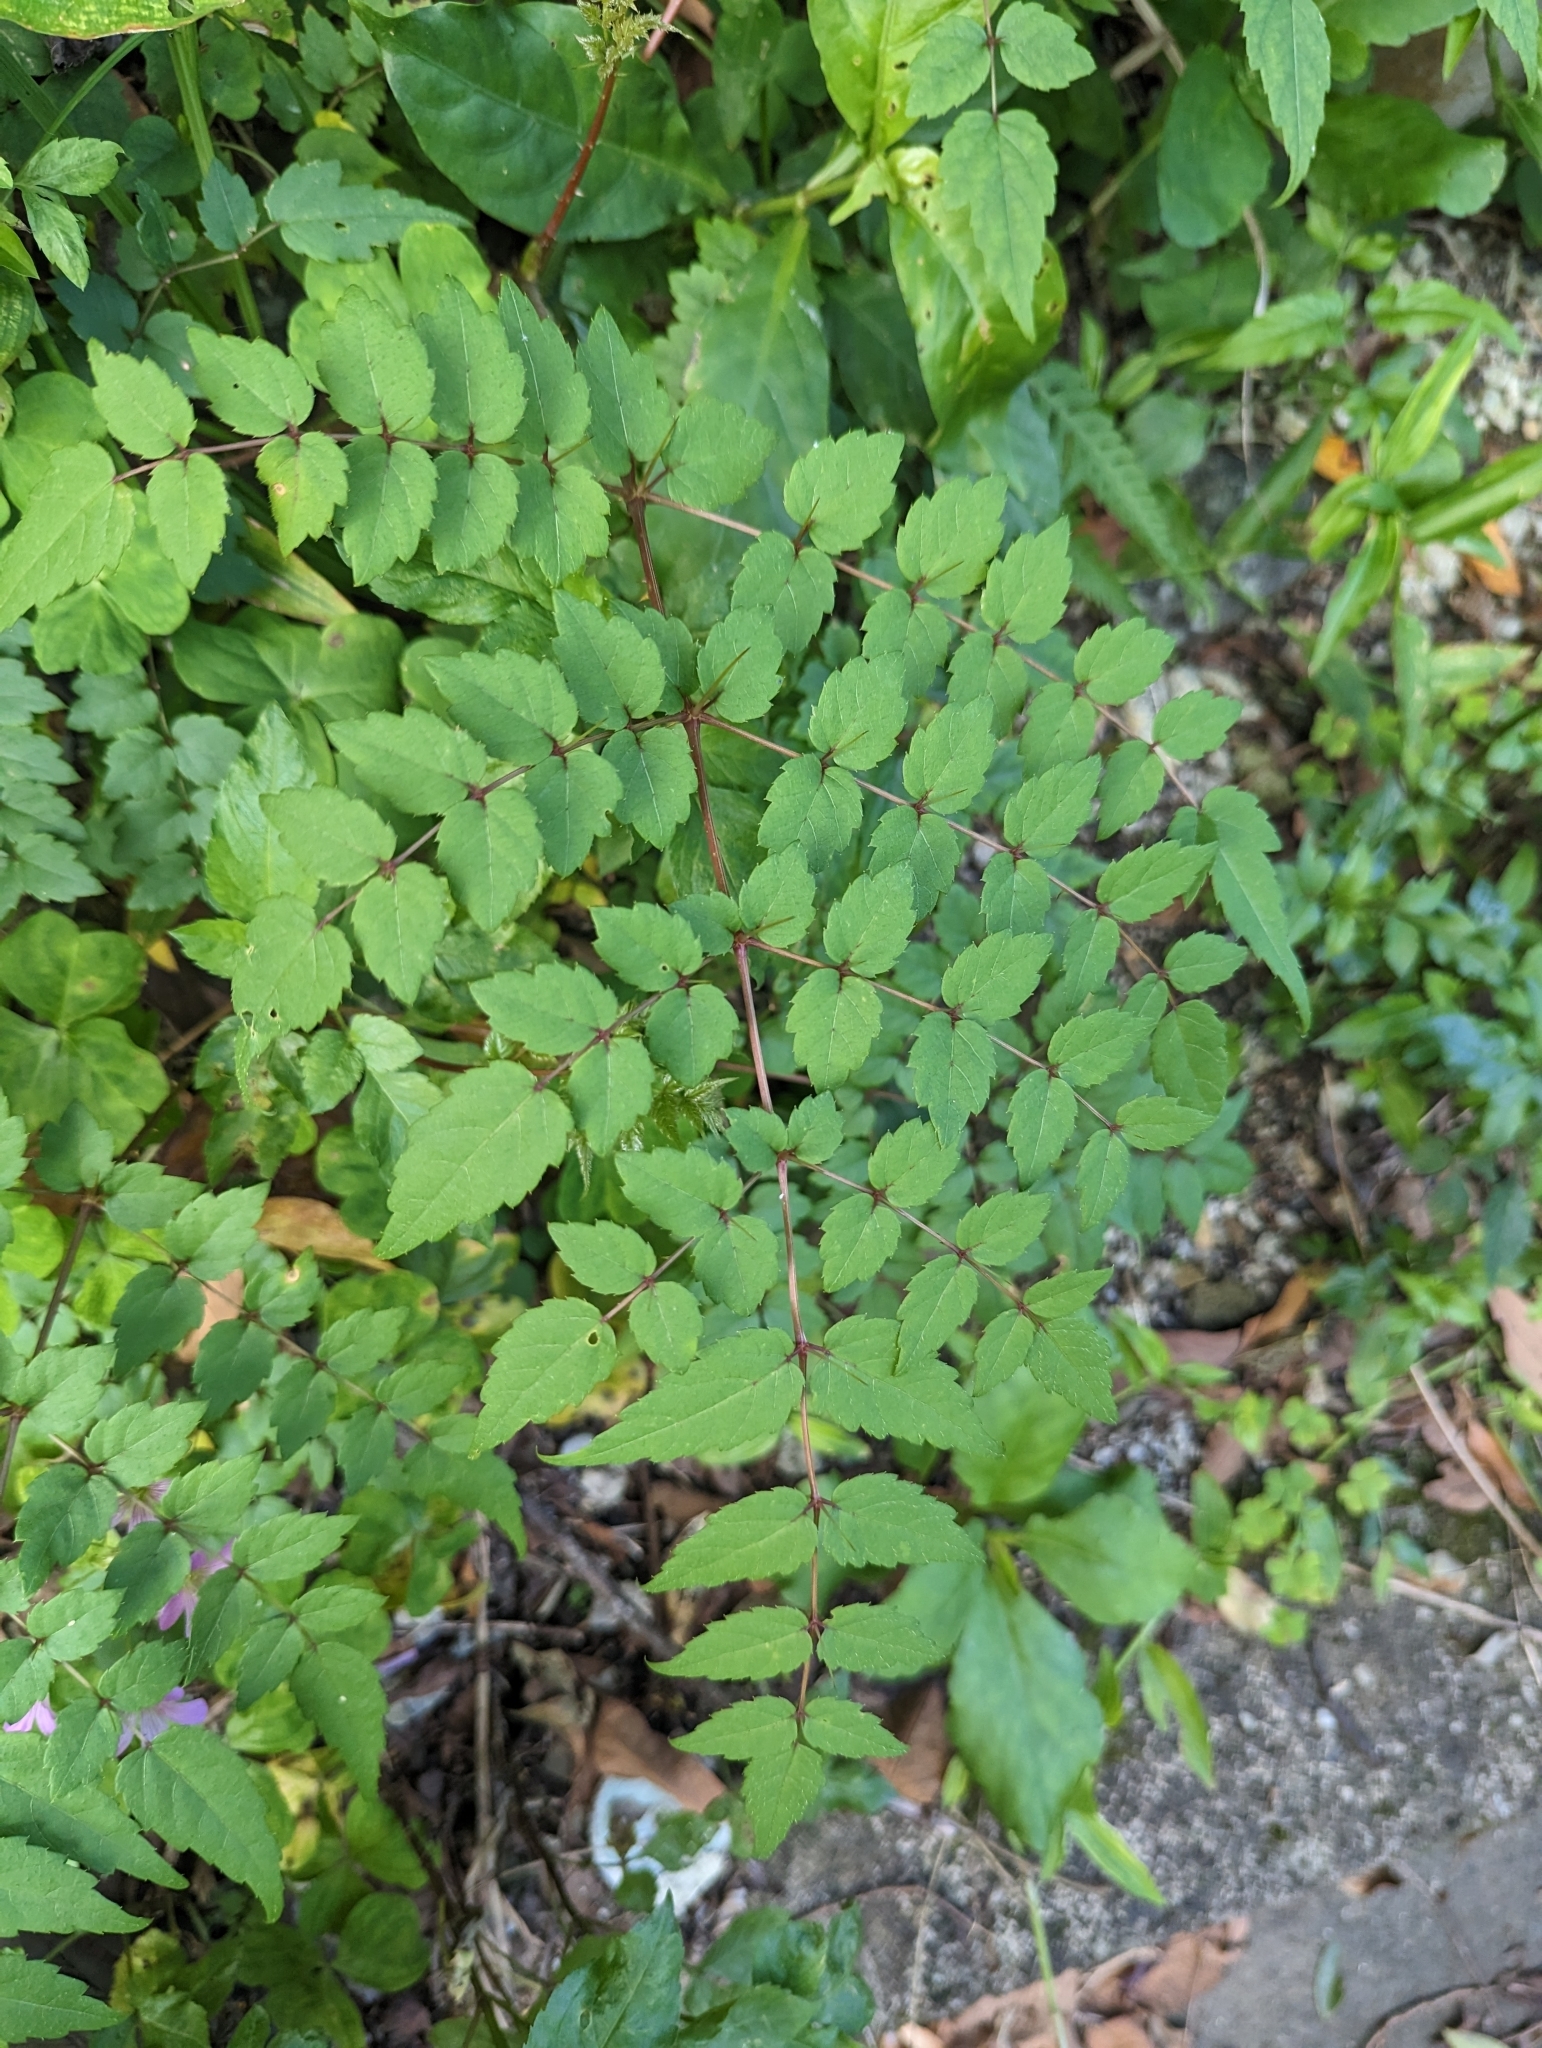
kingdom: Plantae
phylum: Tracheophyta
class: Magnoliopsida
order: Apiales
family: Araliaceae
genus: Aralia
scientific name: Aralia bipinnata
